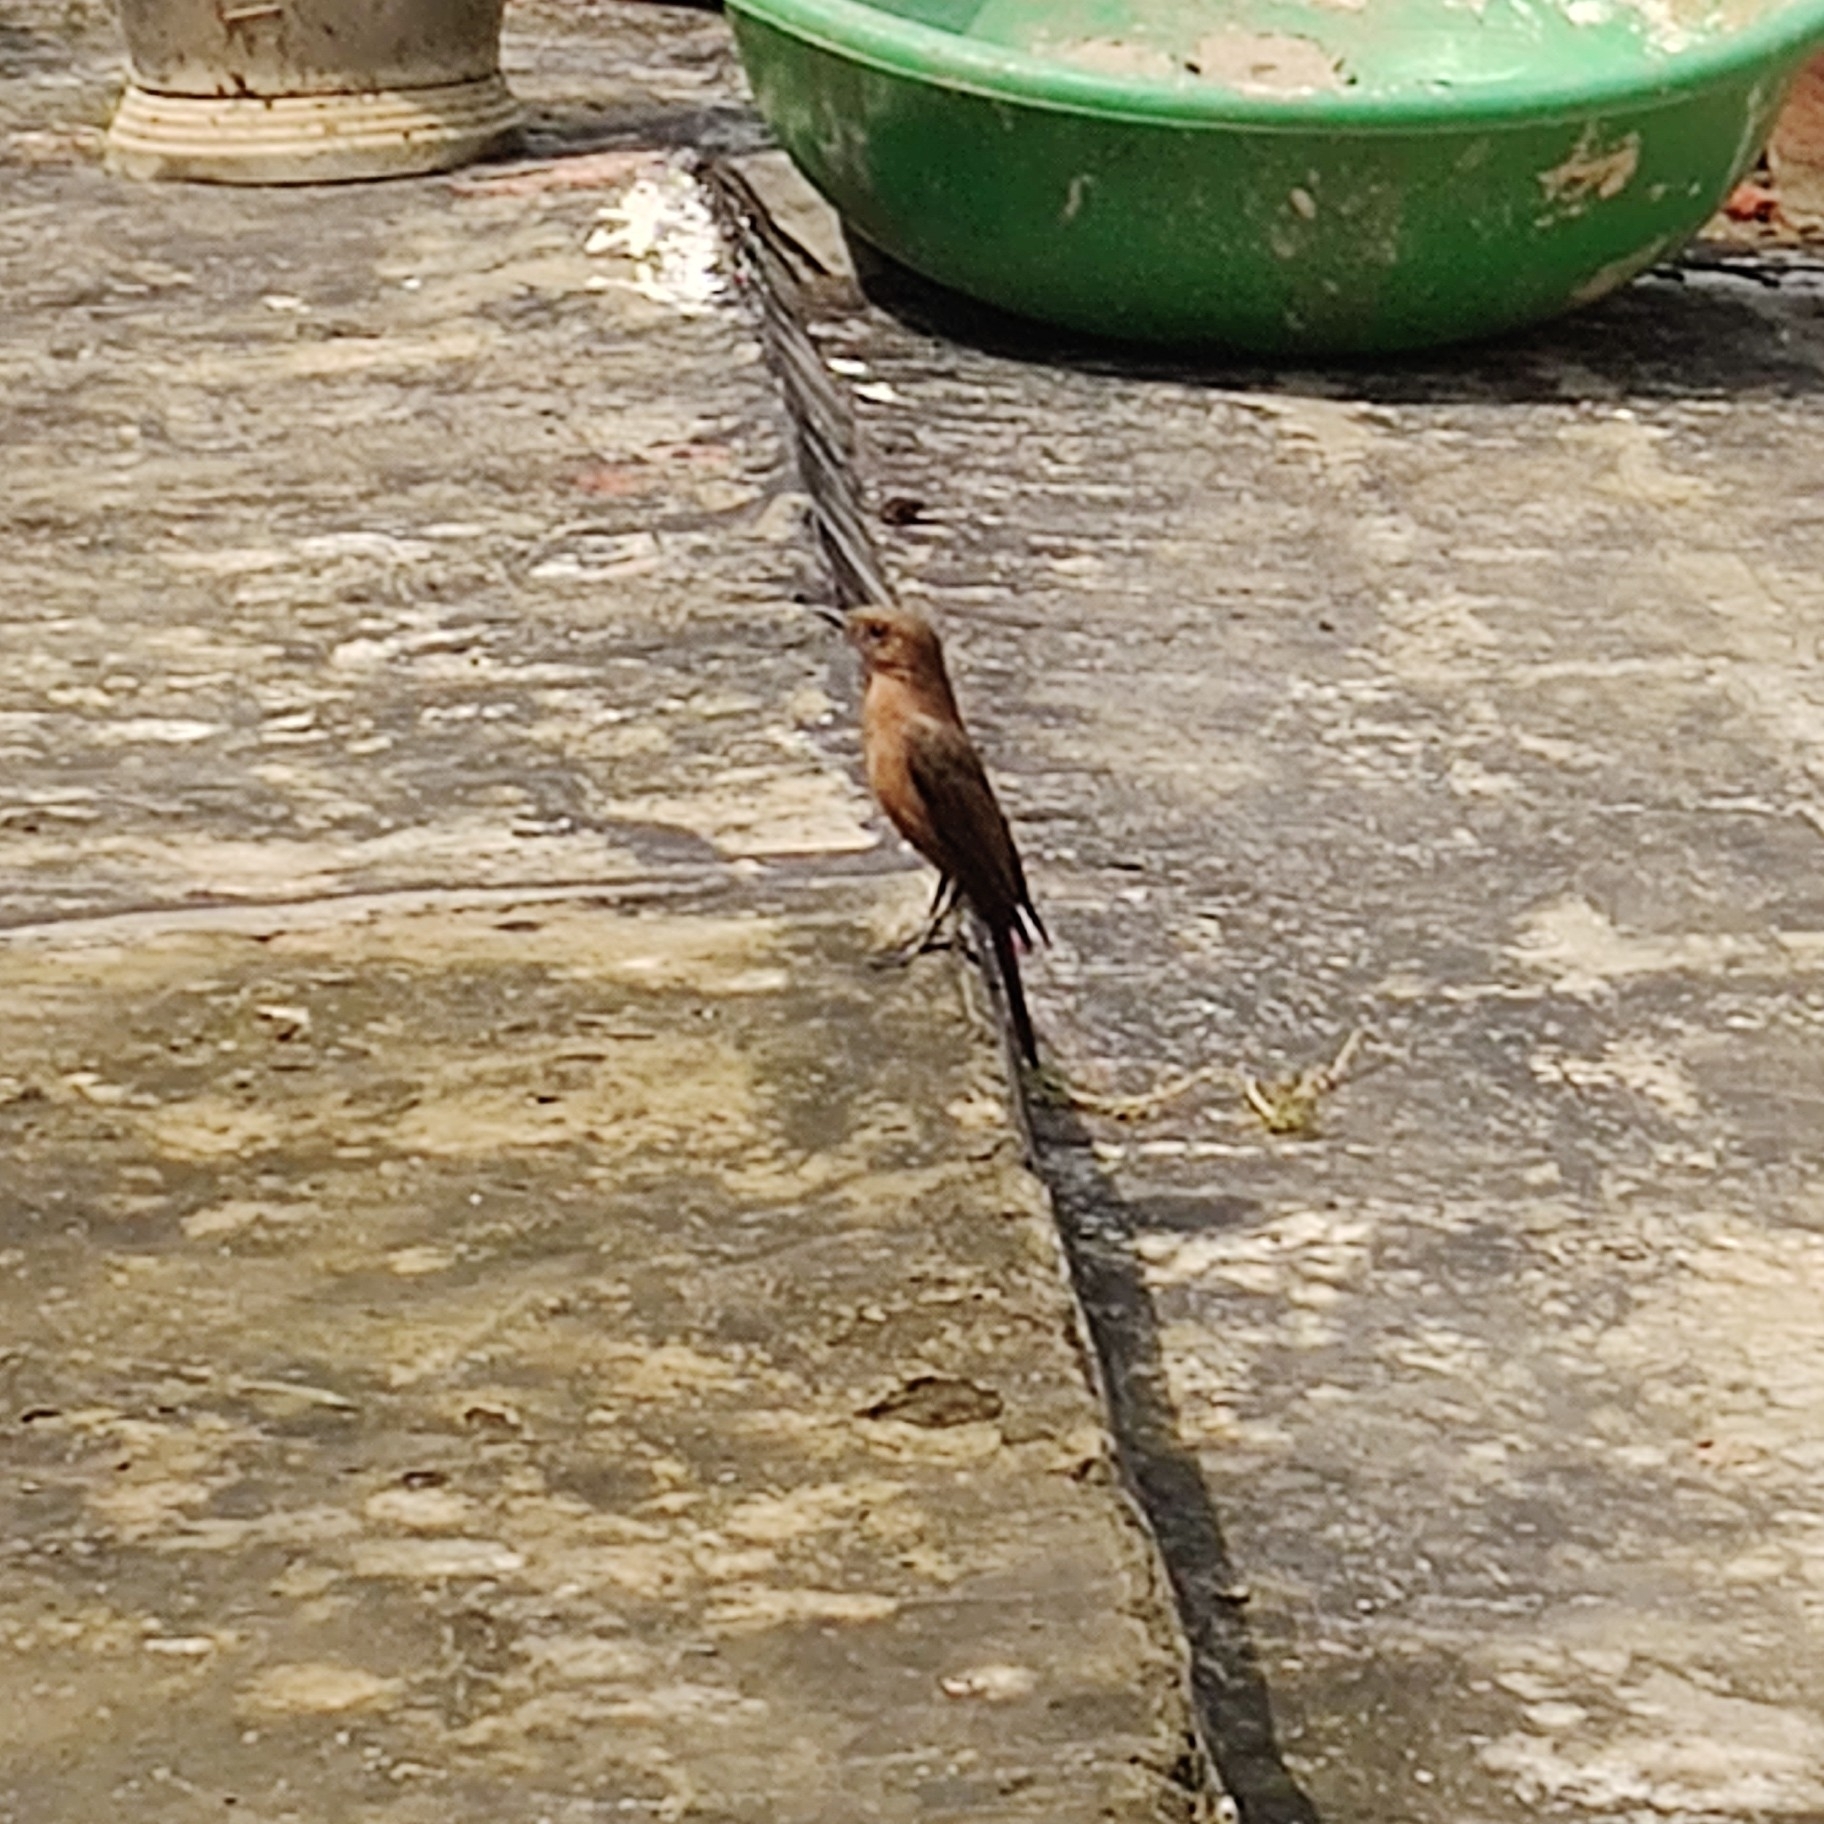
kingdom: Animalia
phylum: Chordata
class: Aves
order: Passeriformes
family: Muscicapidae
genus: Oenanthe
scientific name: Oenanthe fusca
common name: Brown rock chat
